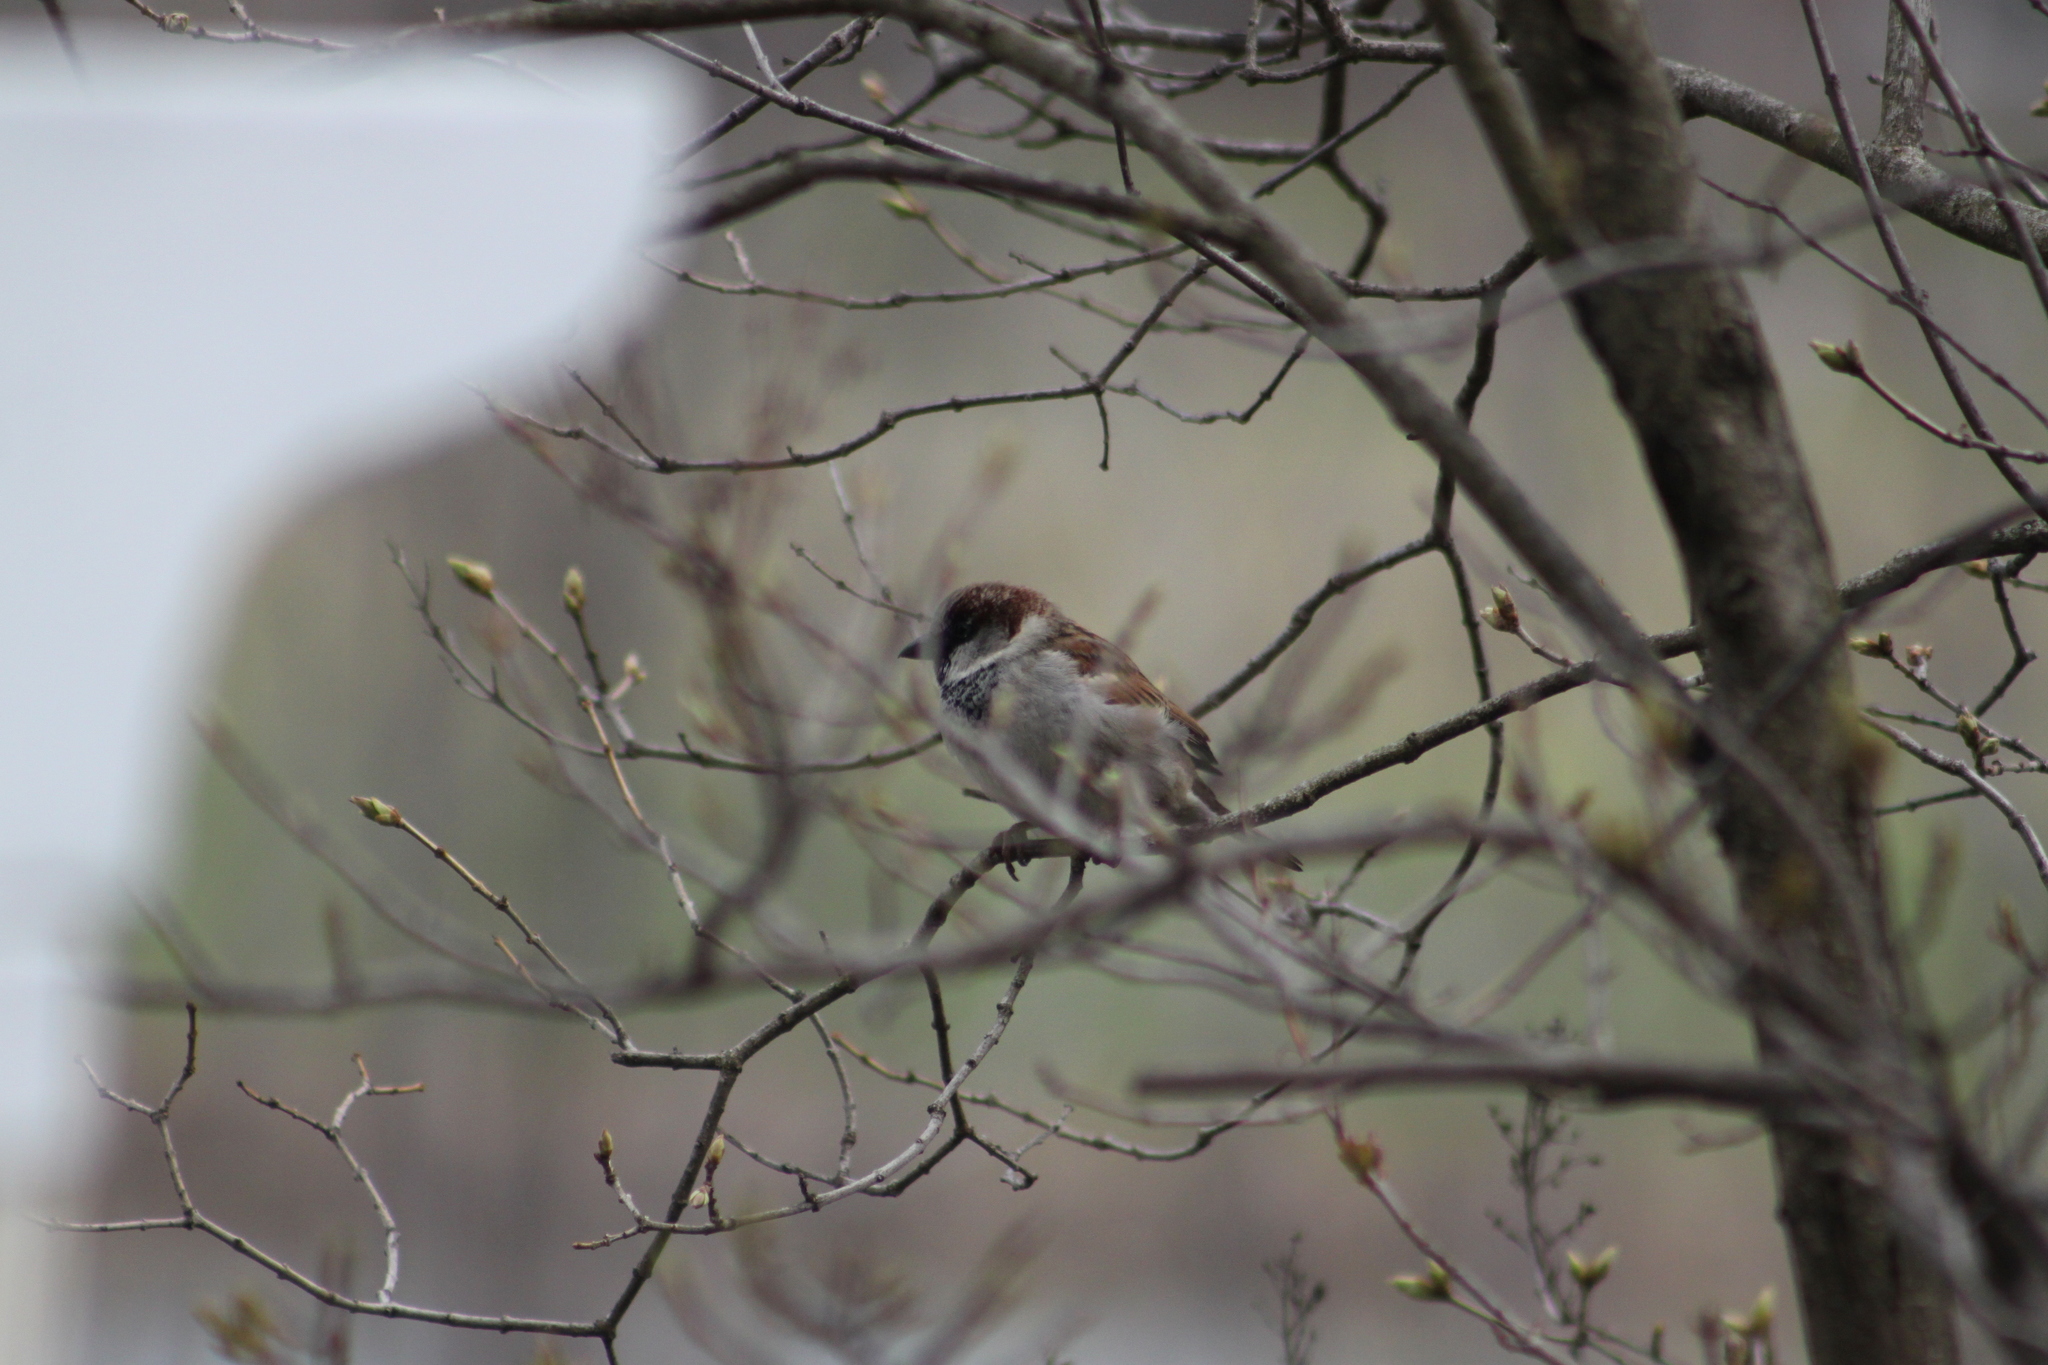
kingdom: Animalia
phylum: Chordata
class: Aves
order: Passeriformes
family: Passeridae
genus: Passer
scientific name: Passer domesticus
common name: House sparrow
